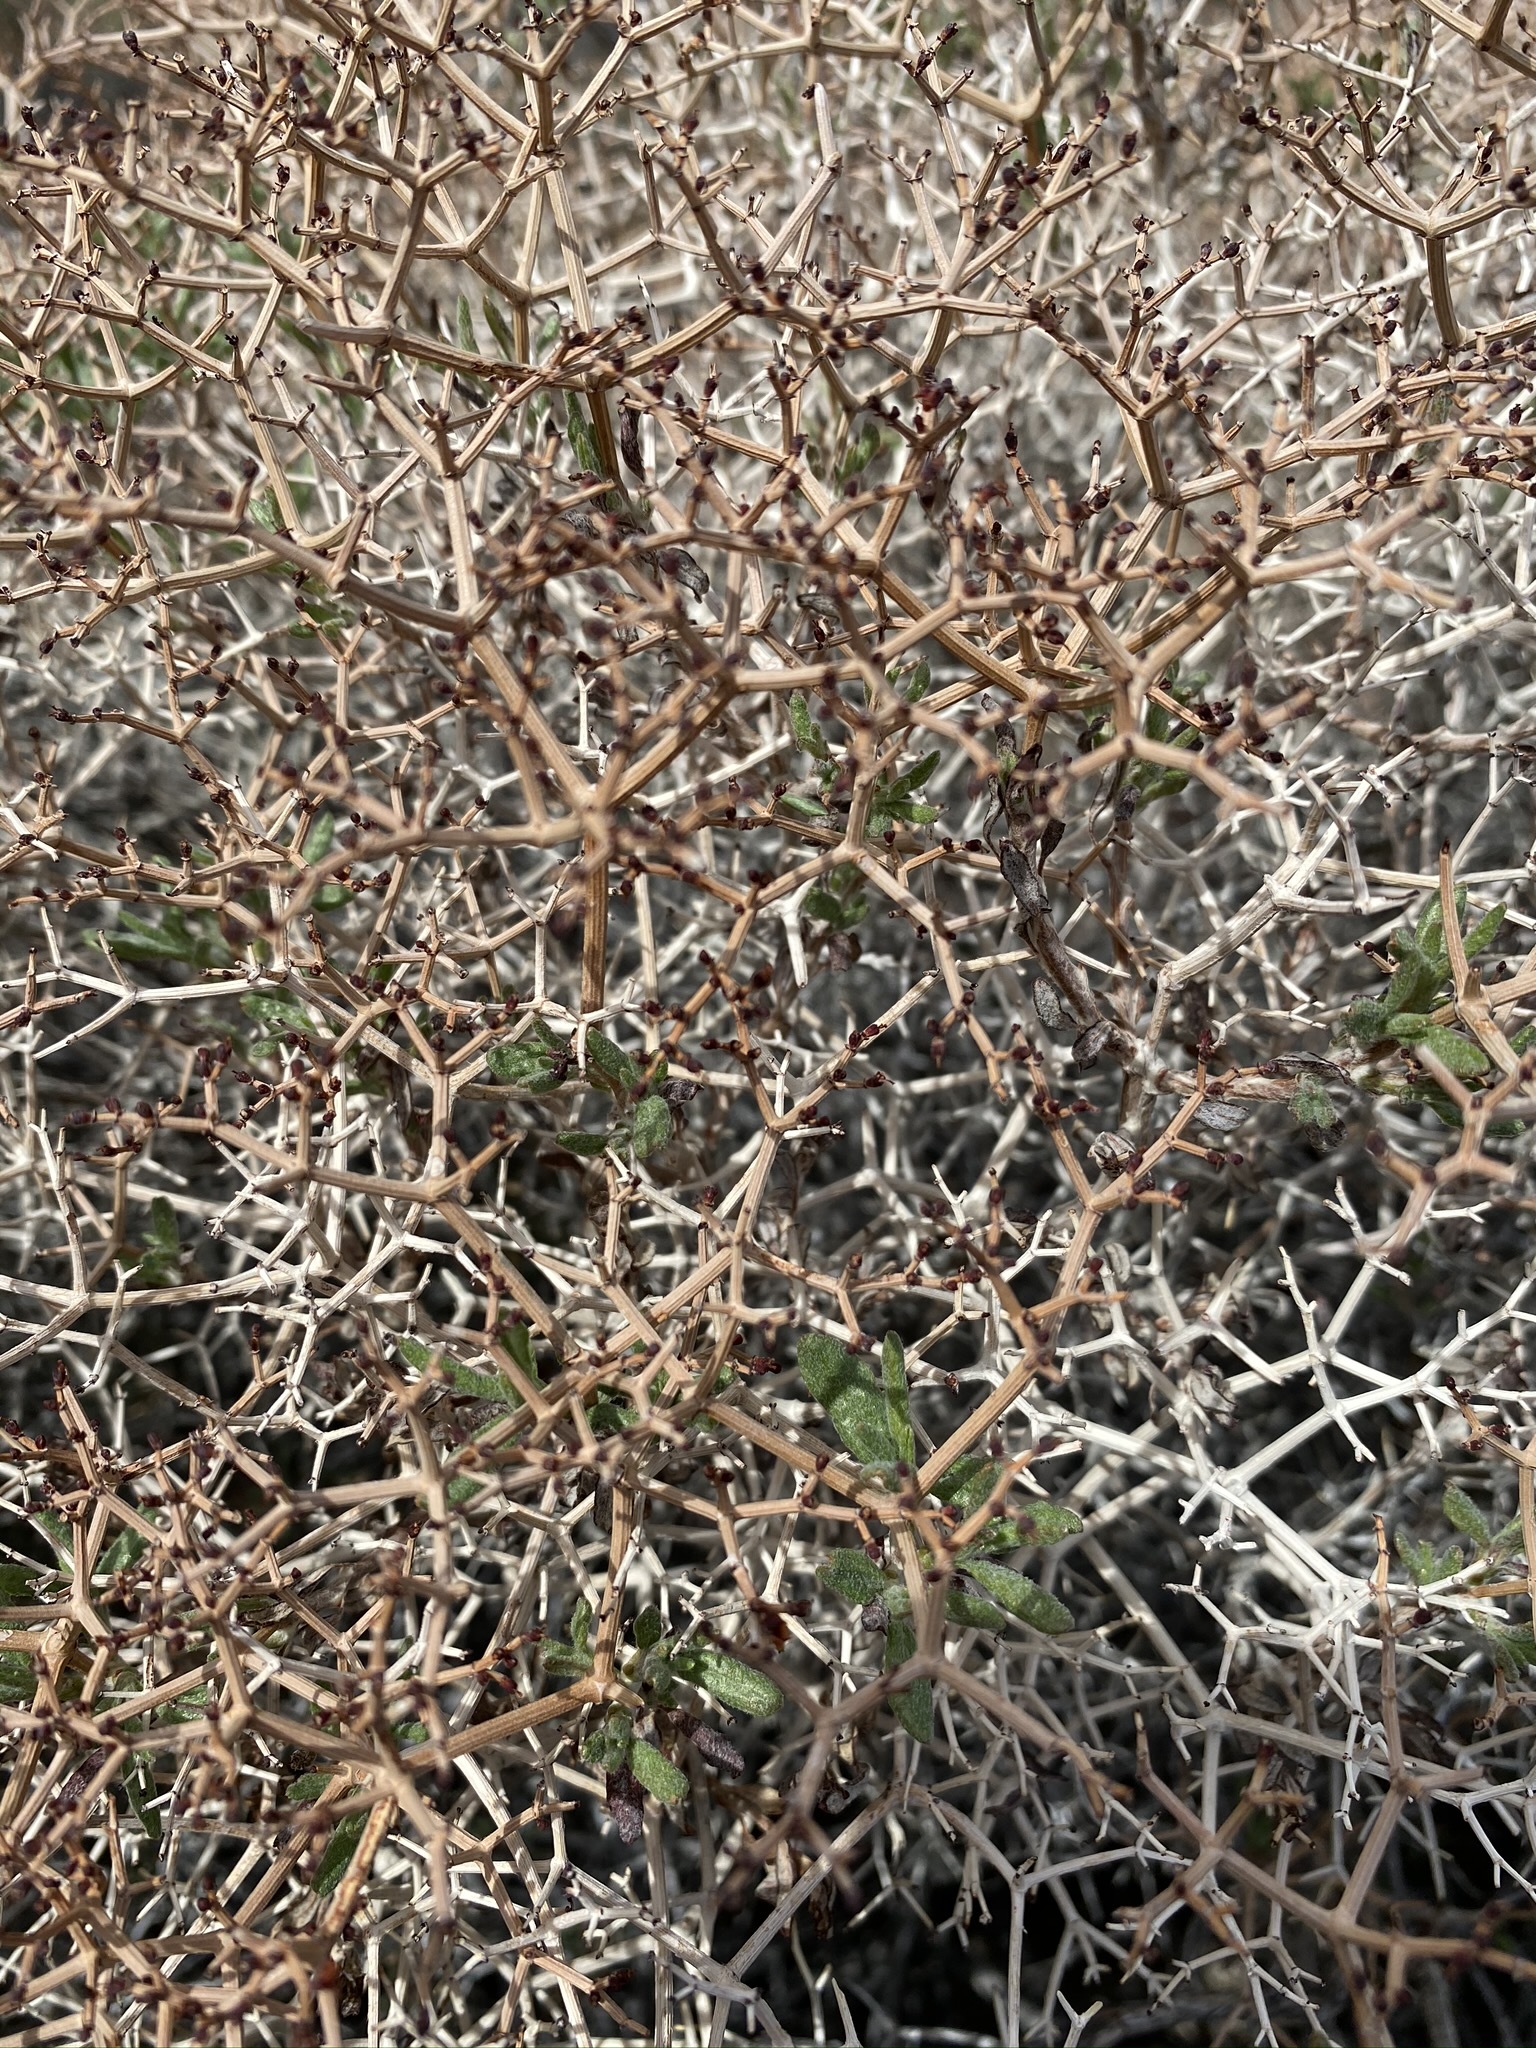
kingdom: Plantae
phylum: Tracheophyta
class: Magnoliopsida
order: Caryophyllales
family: Polygonaceae
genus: Eriogonum
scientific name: Eriogonum heermannii
